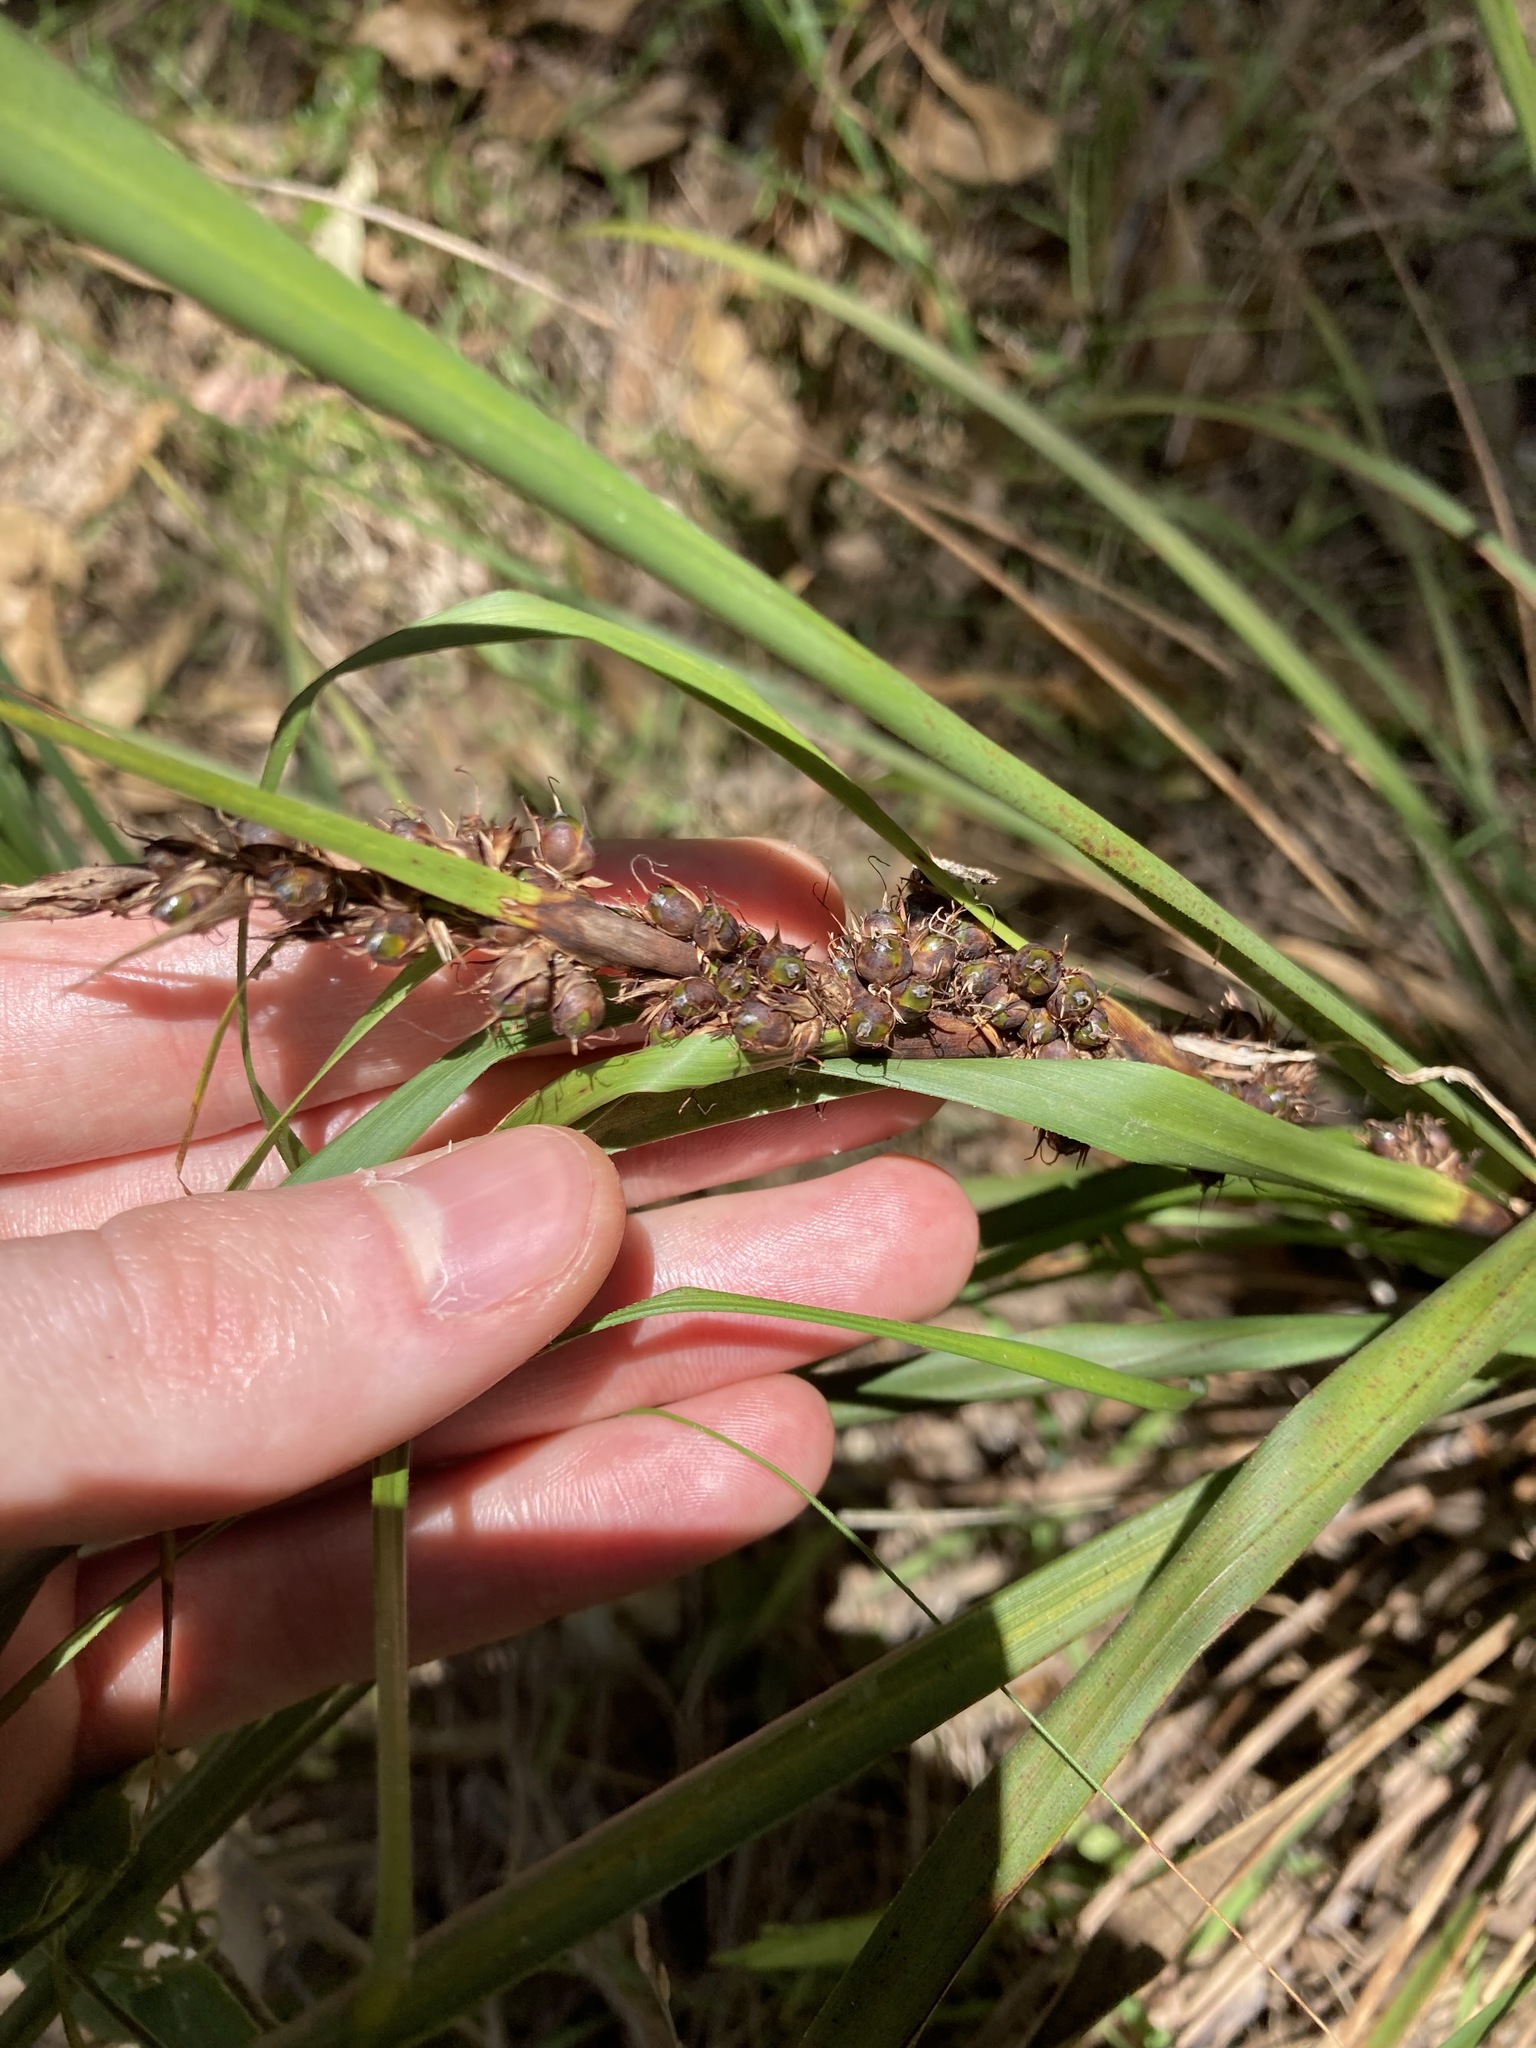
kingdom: Plantae
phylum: Tracheophyta
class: Liliopsida
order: Poales
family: Cyperaceae
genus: Gahnia
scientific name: Gahnia aspera
